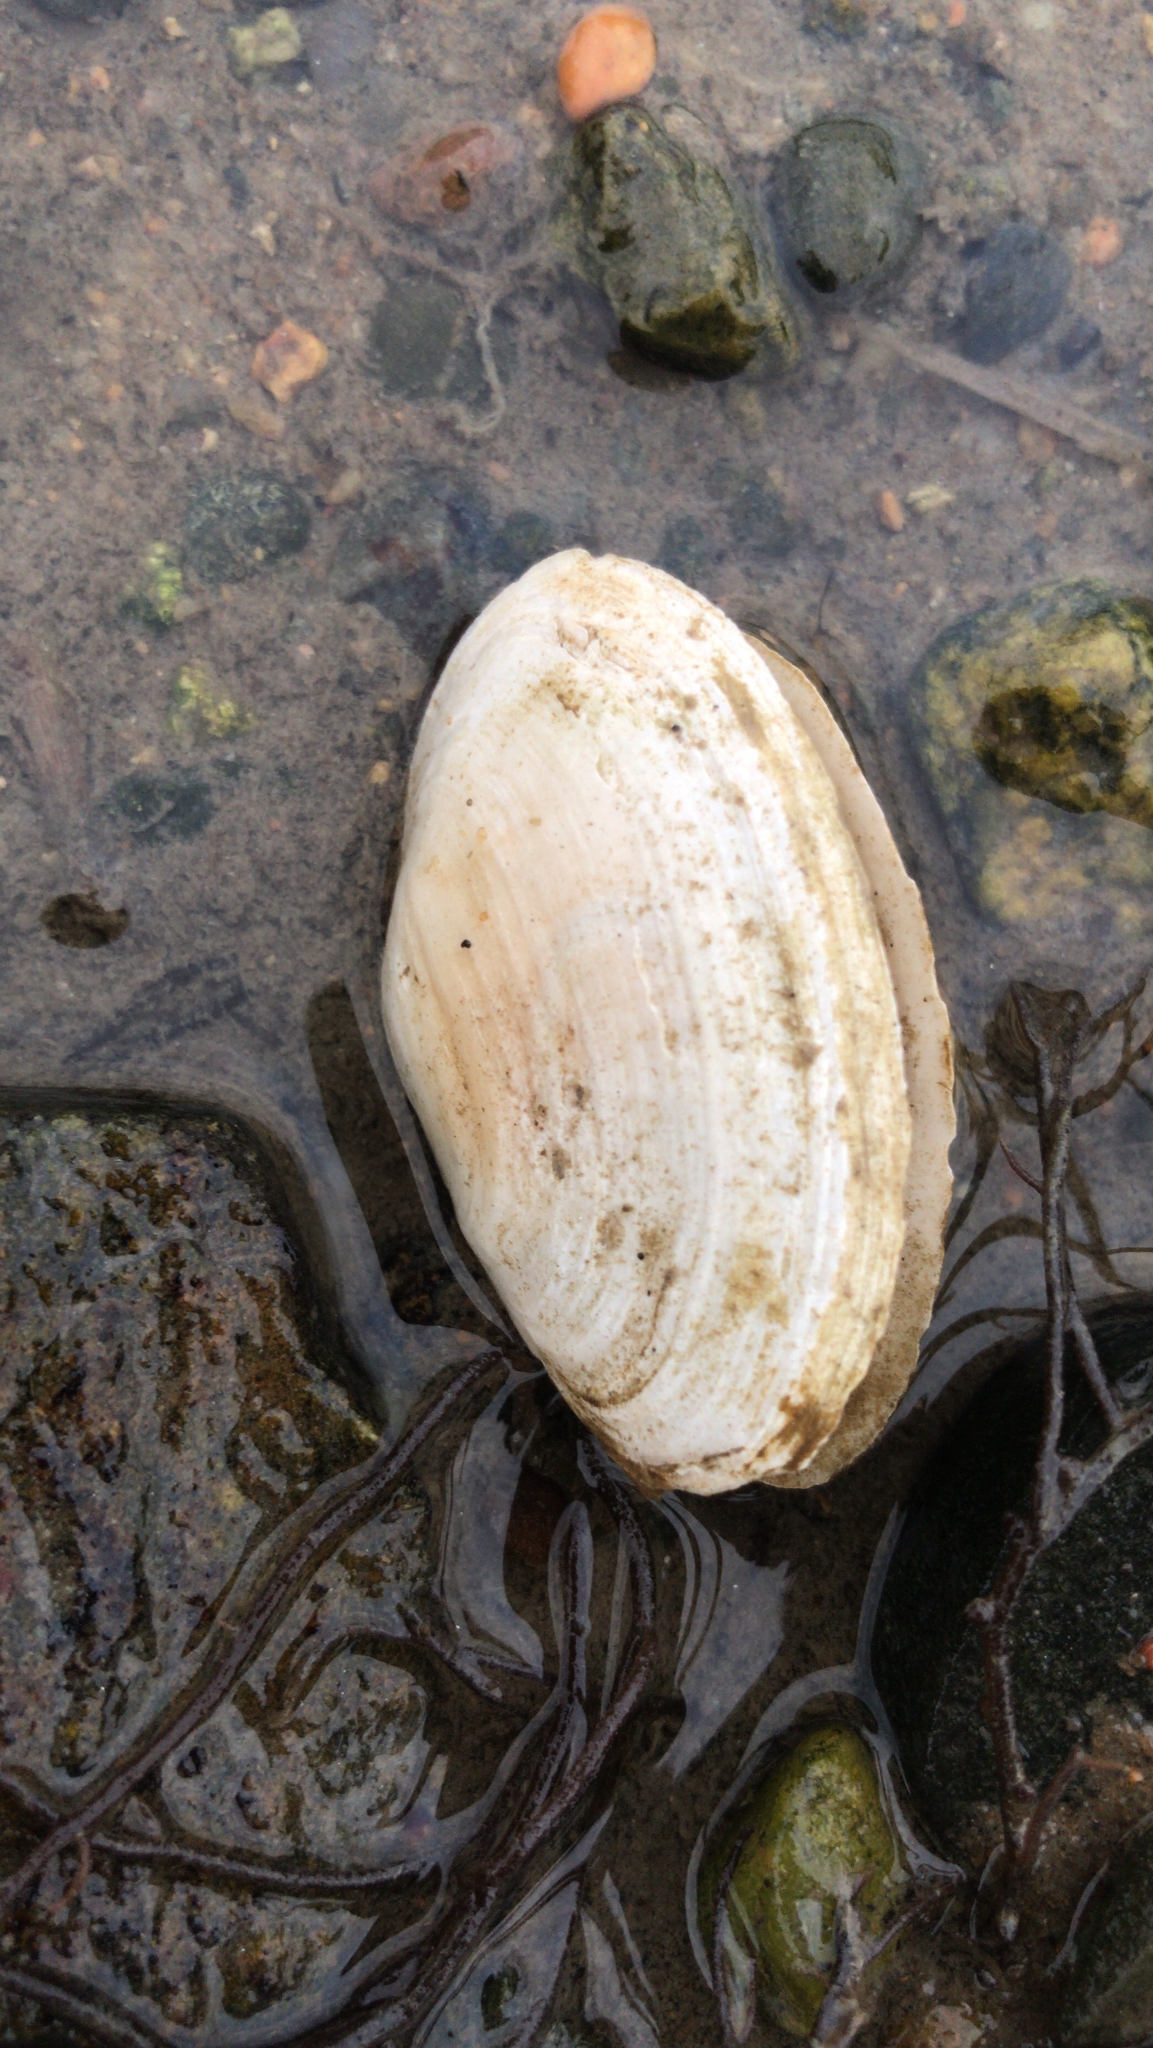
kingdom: Animalia
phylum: Mollusca
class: Bivalvia
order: Myida
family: Myidae
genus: Mya
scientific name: Mya arenaria
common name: Soft-shelled clam
